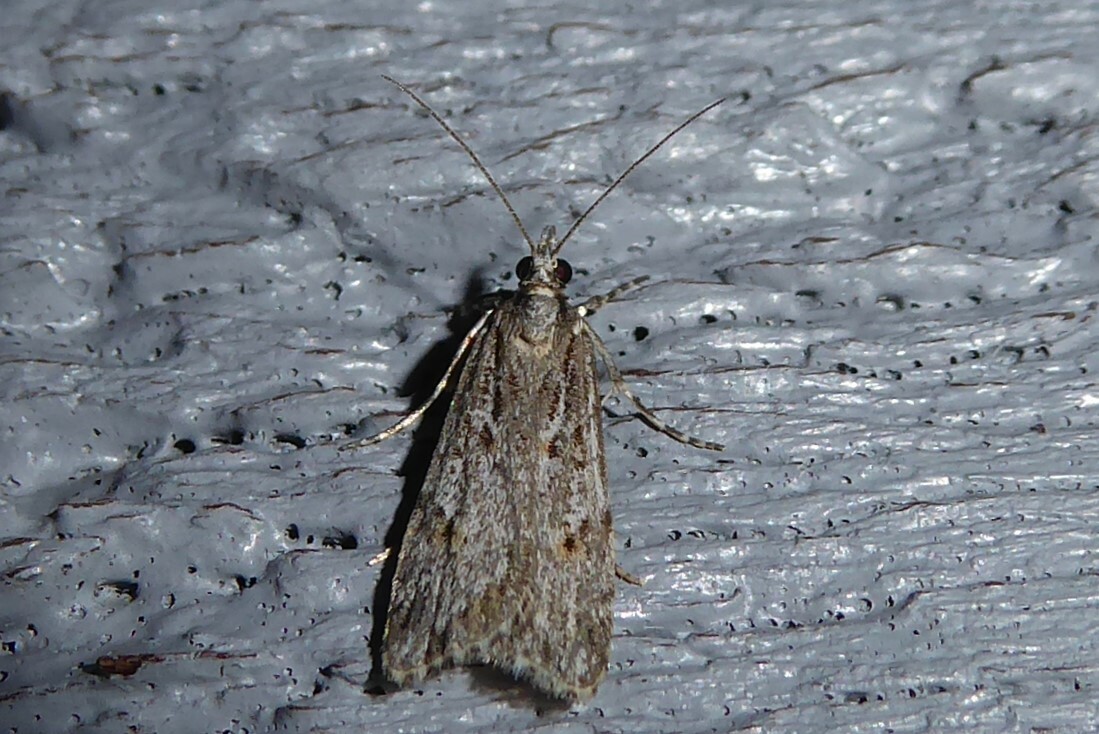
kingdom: Animalia
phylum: Arthropoda
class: Insecta
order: Lepidoptera
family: Crambidae
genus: Scoparia
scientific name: Scoparia chalicodes
